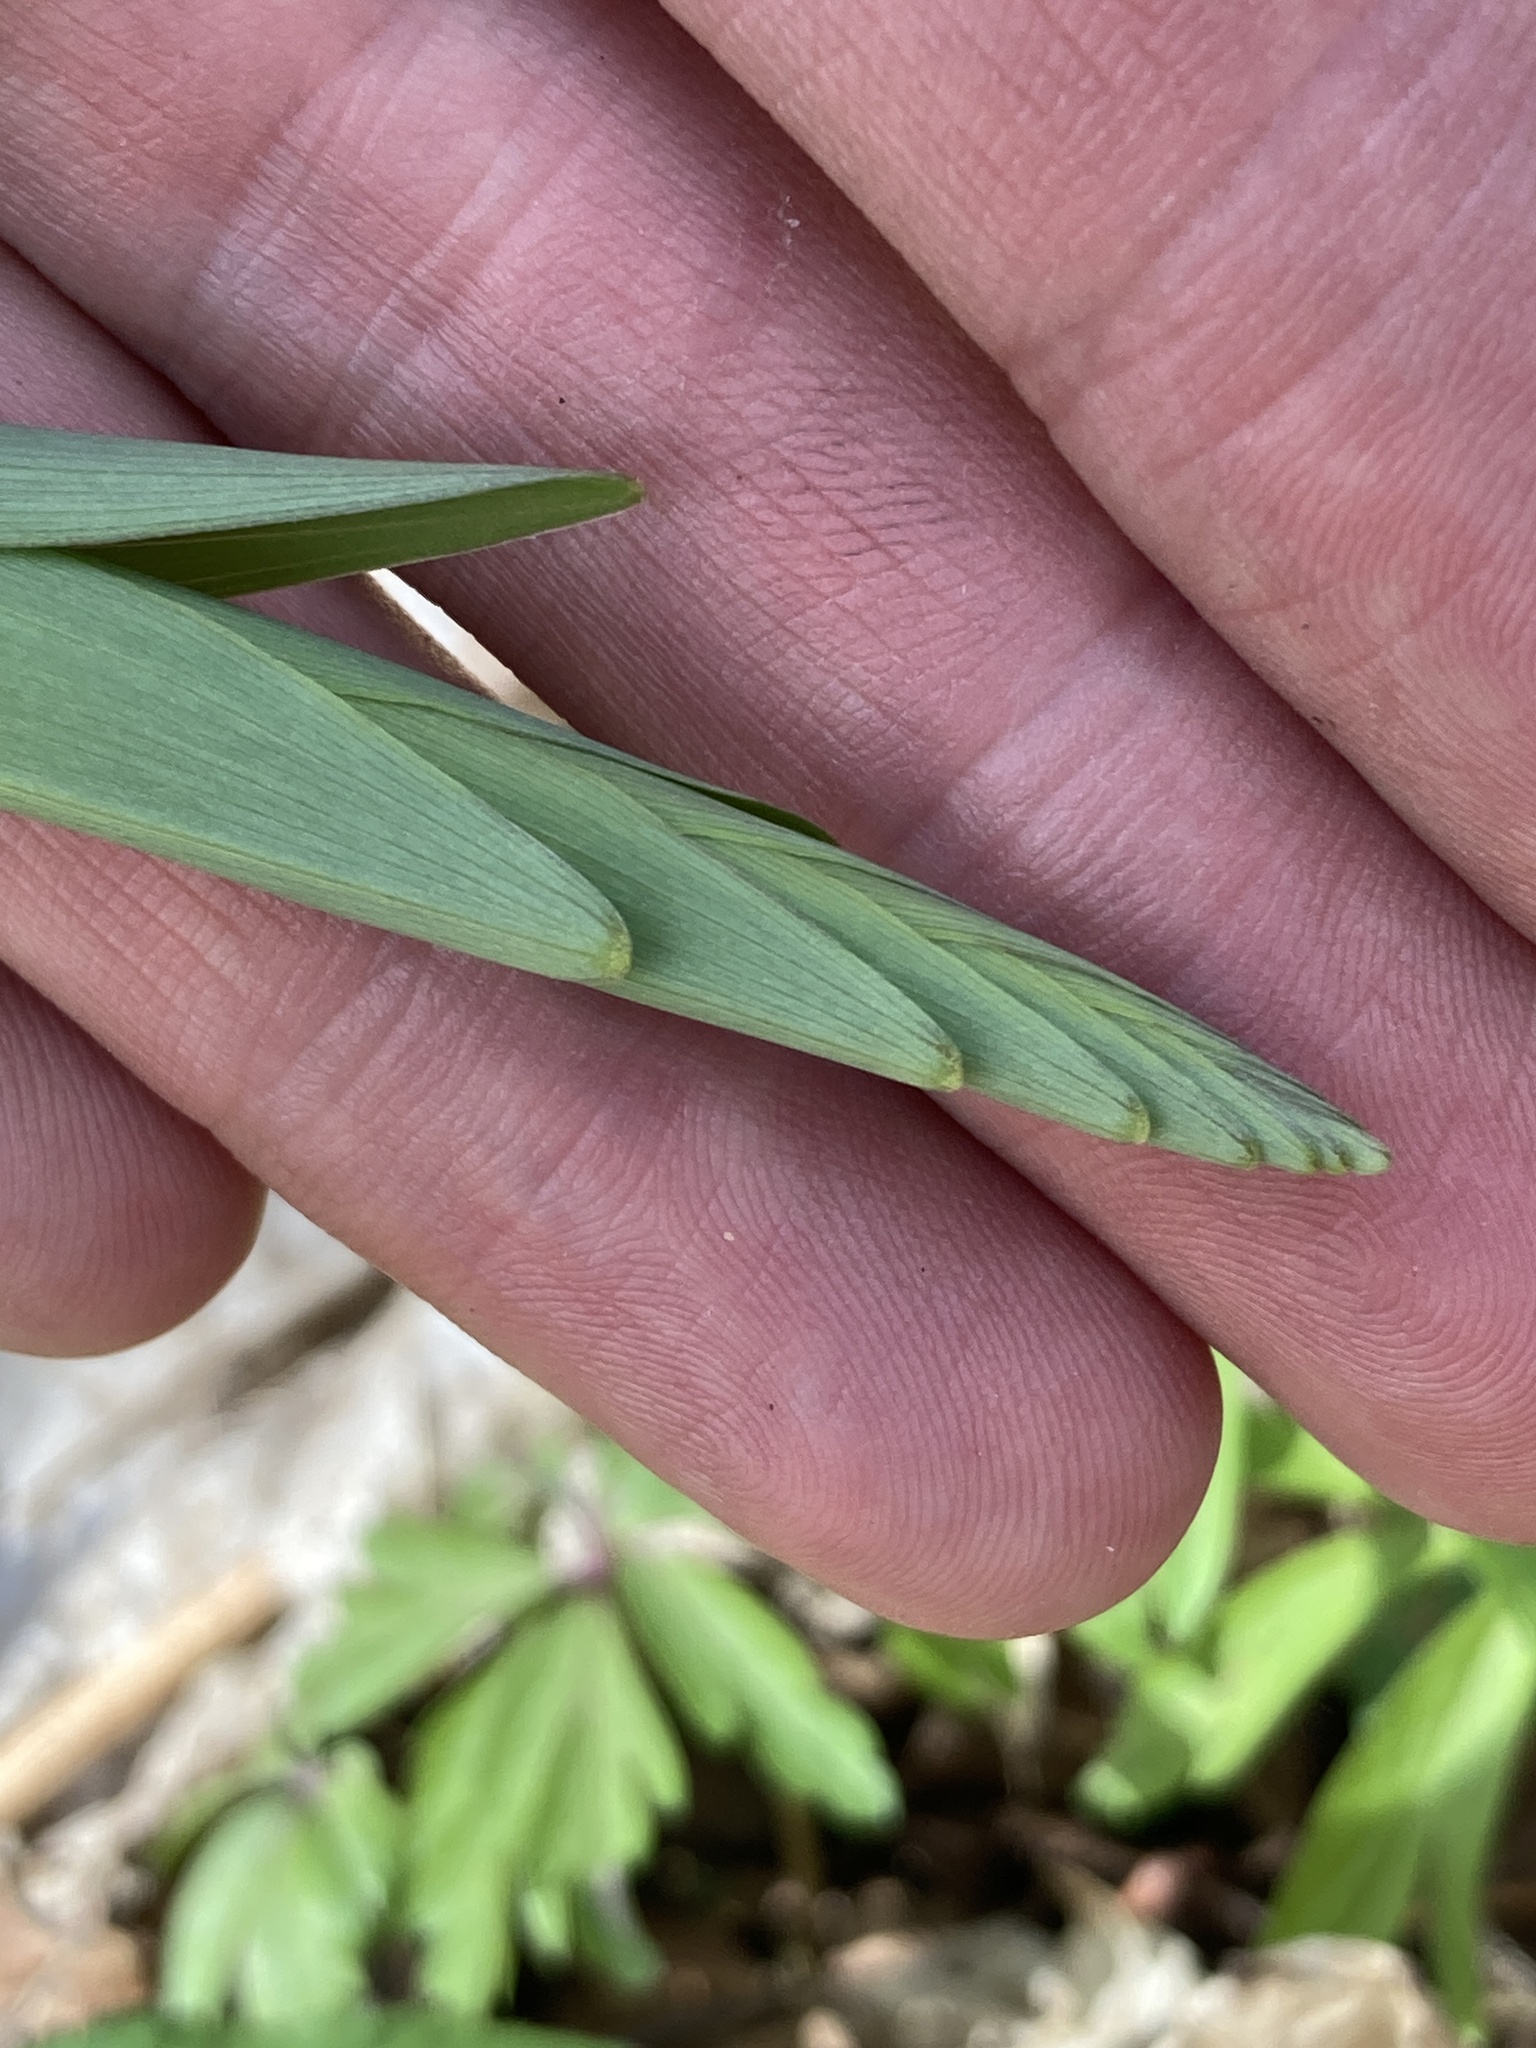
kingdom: Plantae
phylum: Tracheophyta
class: Liliopsida
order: Asparagales
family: Asparagaceae
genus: Polygonatum
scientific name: Polygonatum multiflorum
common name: Solomon's-seal
